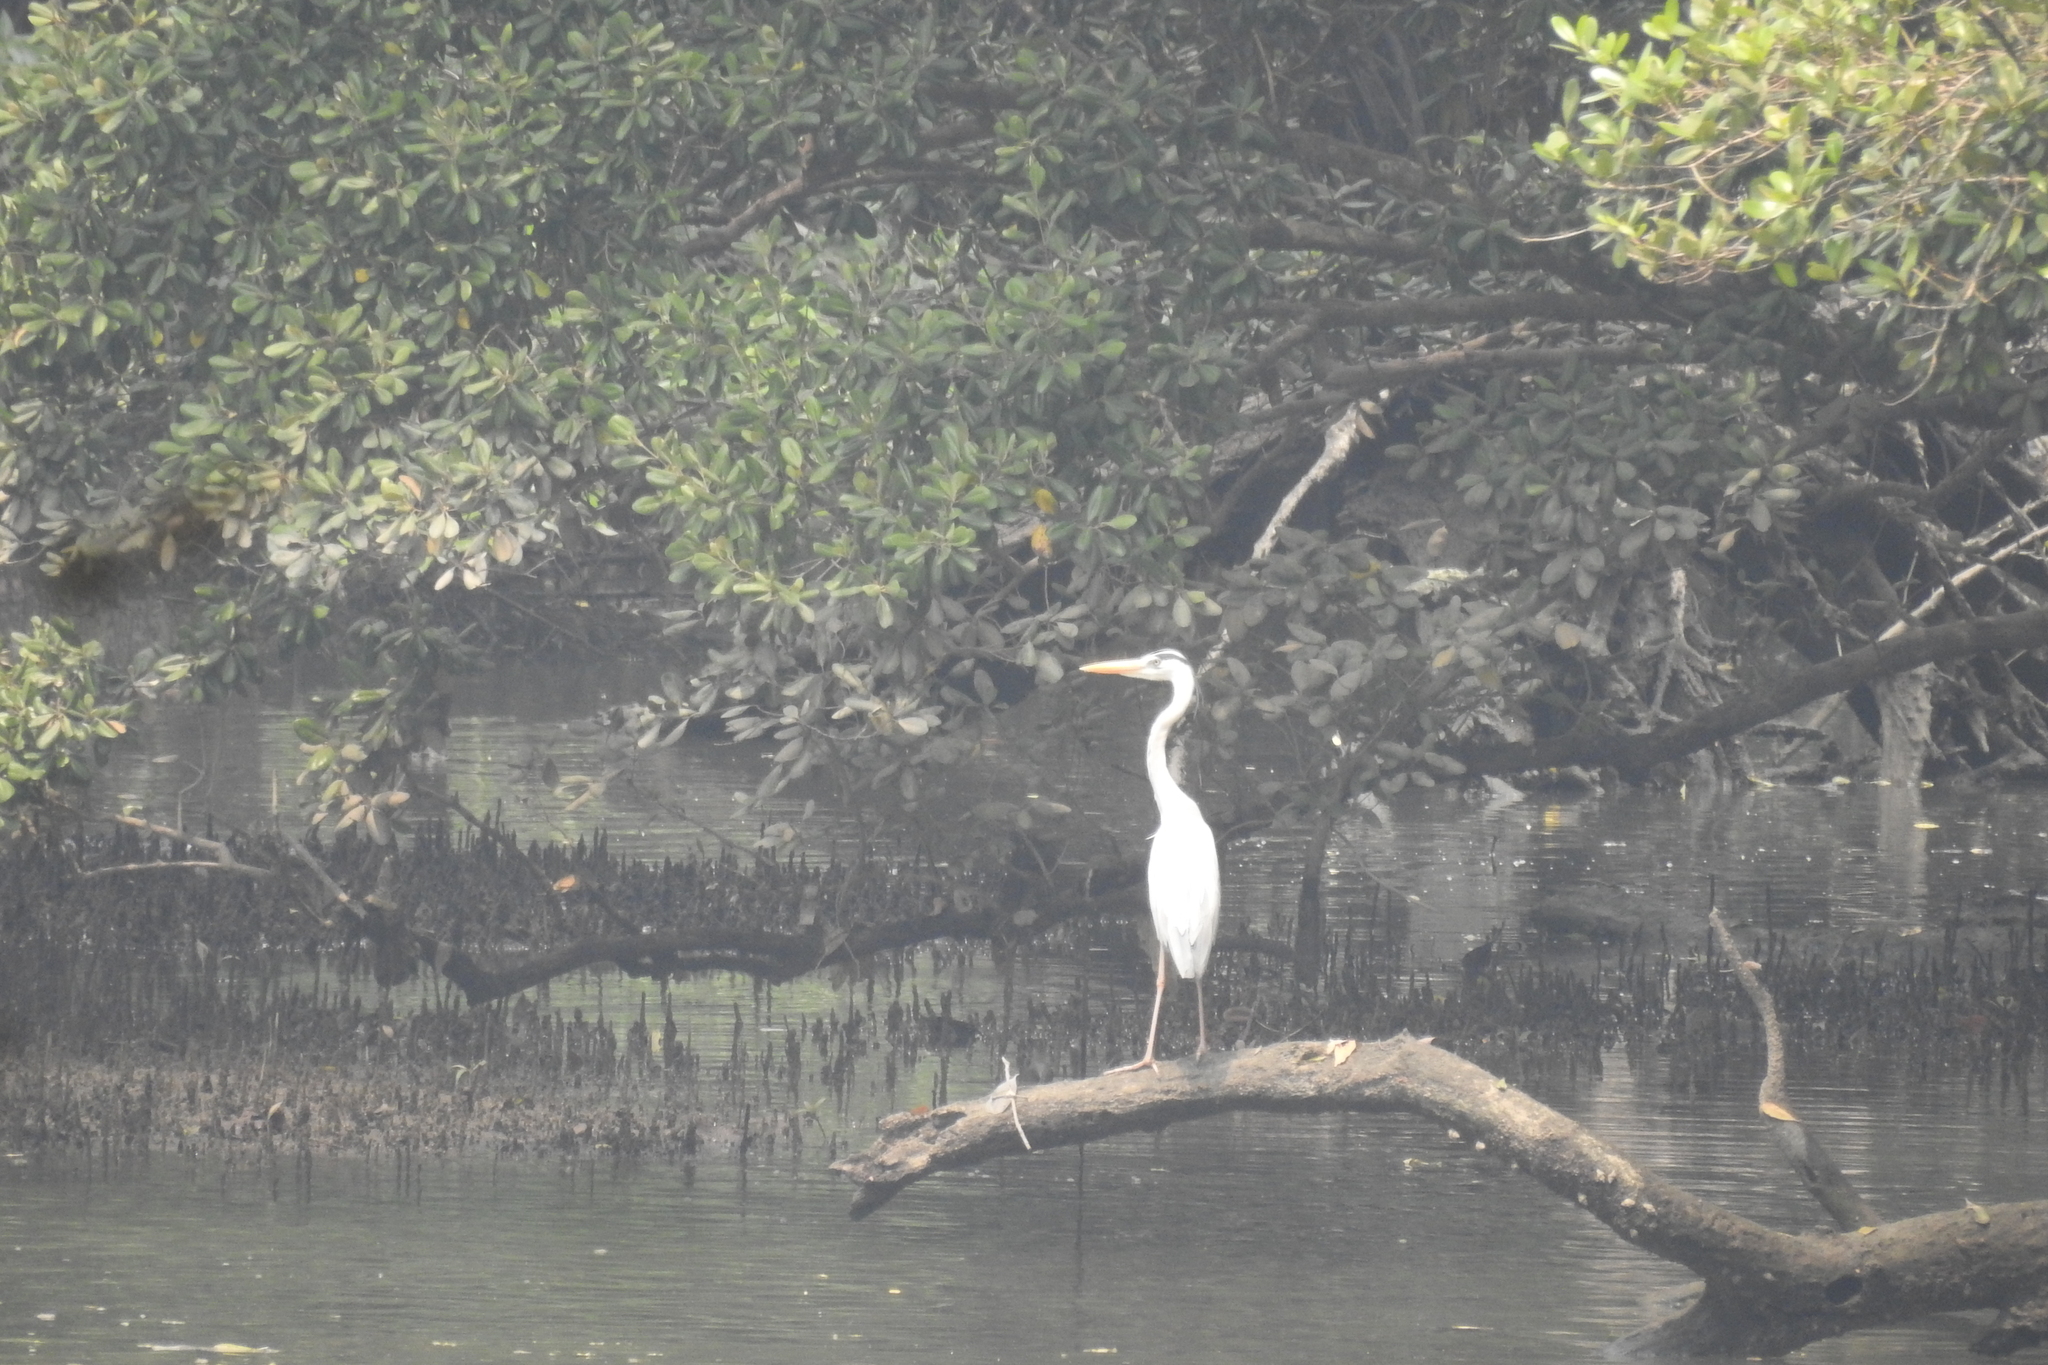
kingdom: Animalia
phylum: Chordata
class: Aves
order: Pelecaniformes
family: Ardeidae
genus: Ardea
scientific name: Ardea cinerea
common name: Grey heron
